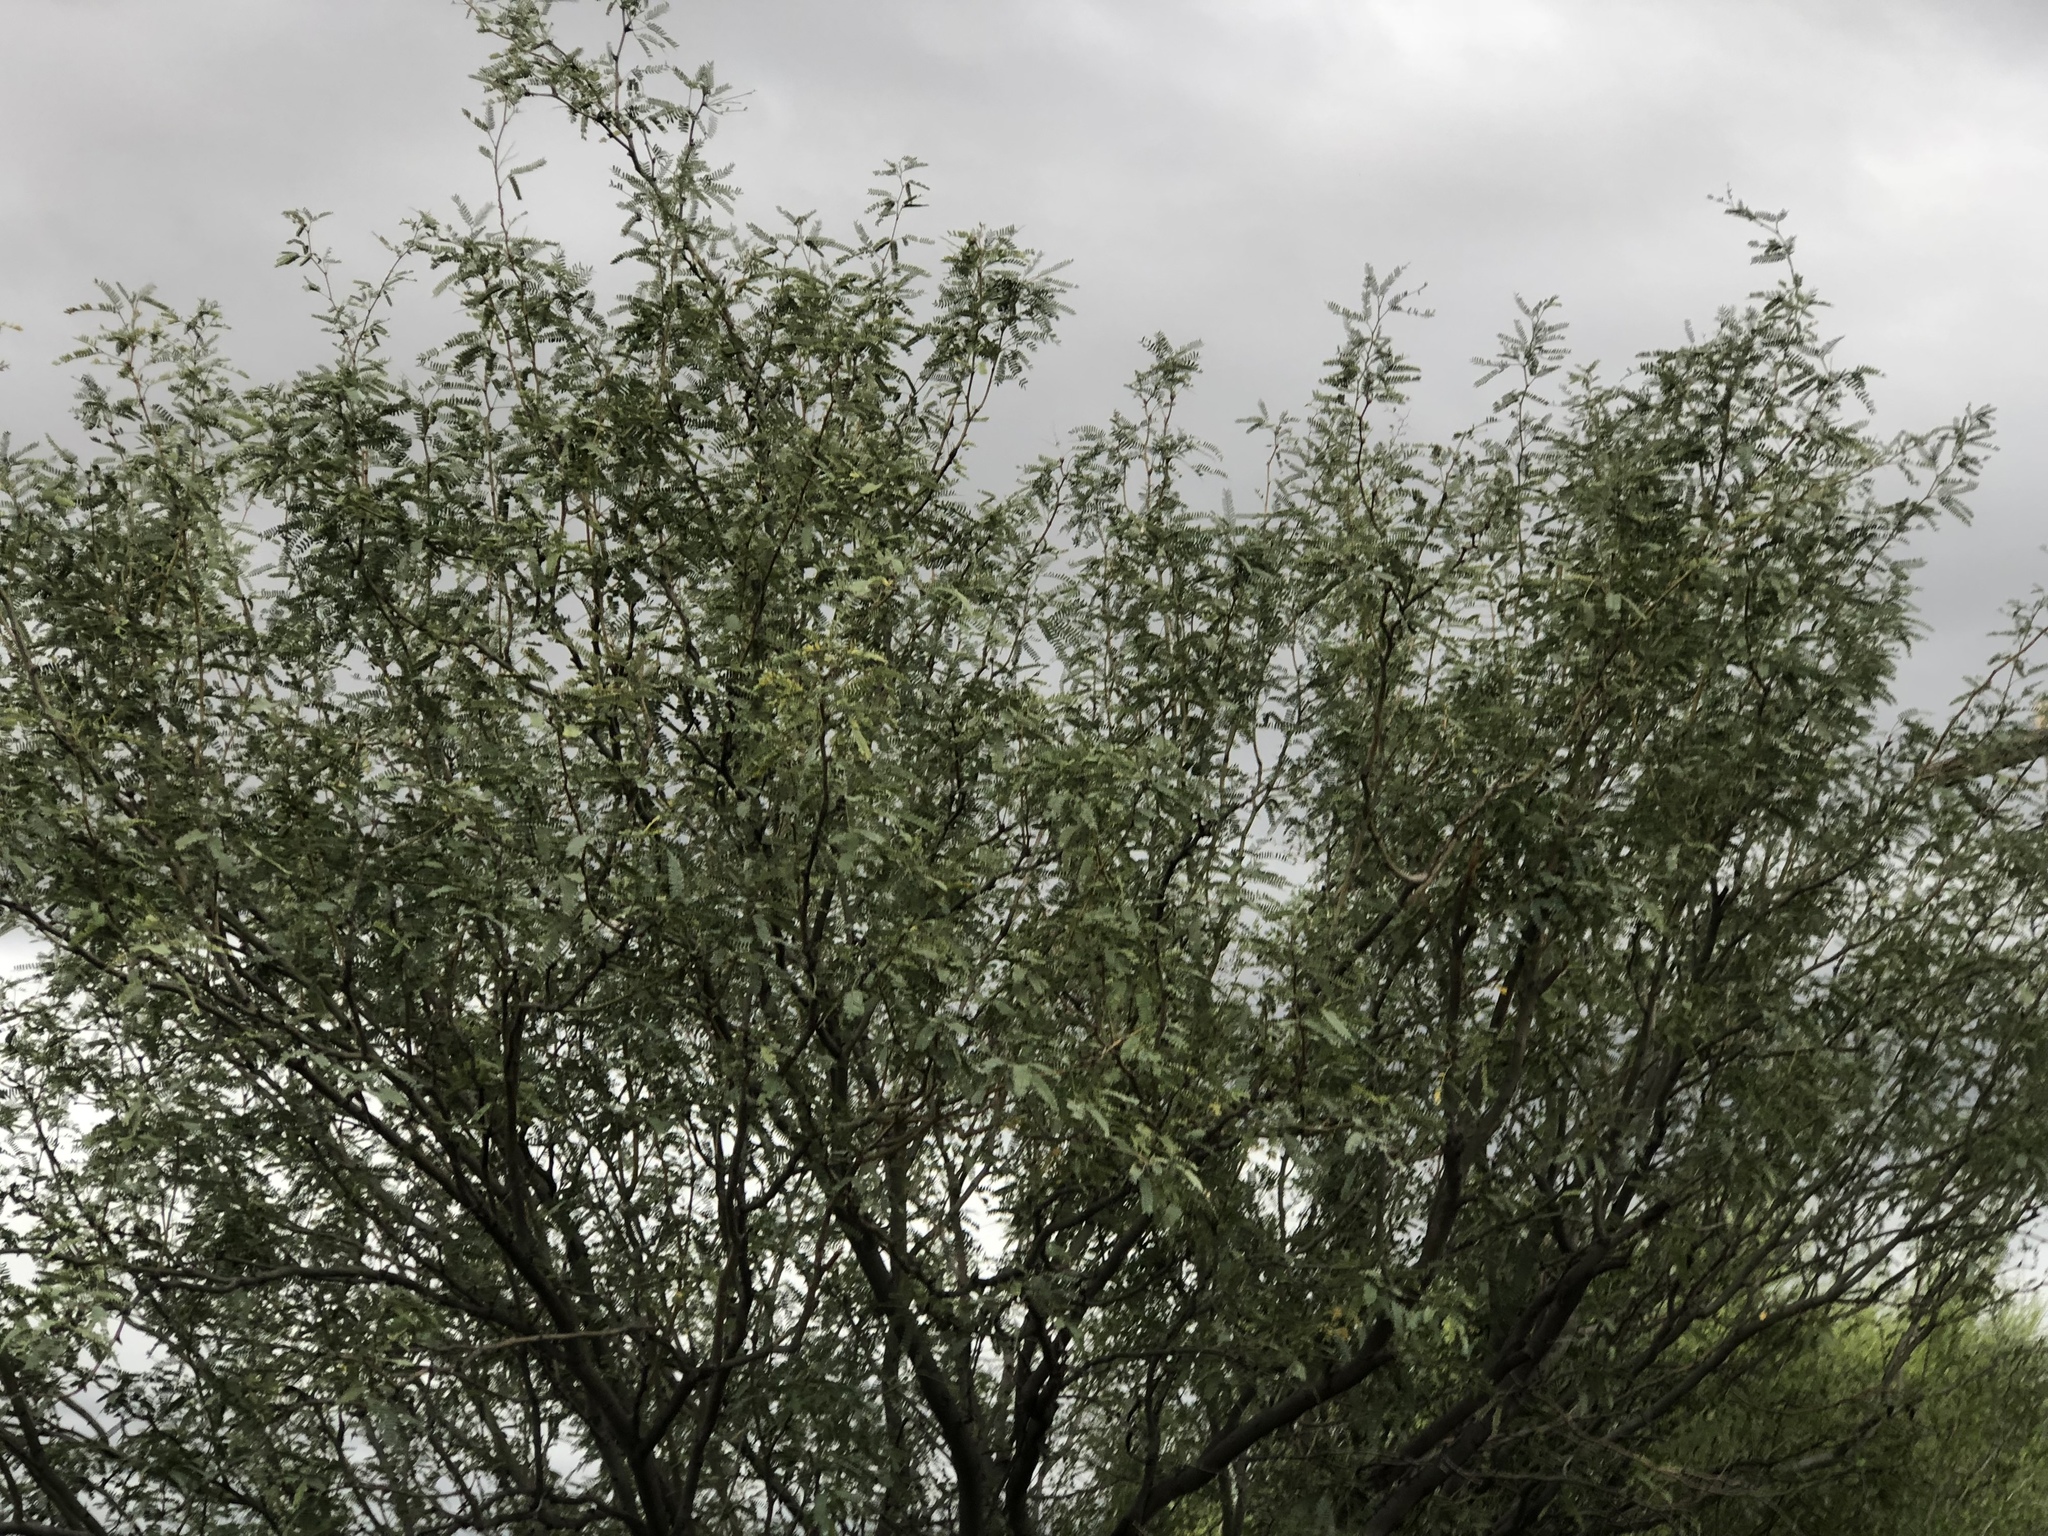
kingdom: Plantae
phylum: Tracheophyta
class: Magnoliopsida
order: Fabales
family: Fabaceae
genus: Prosopis
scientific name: Prosopis velutina
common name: Velvet mesquite
